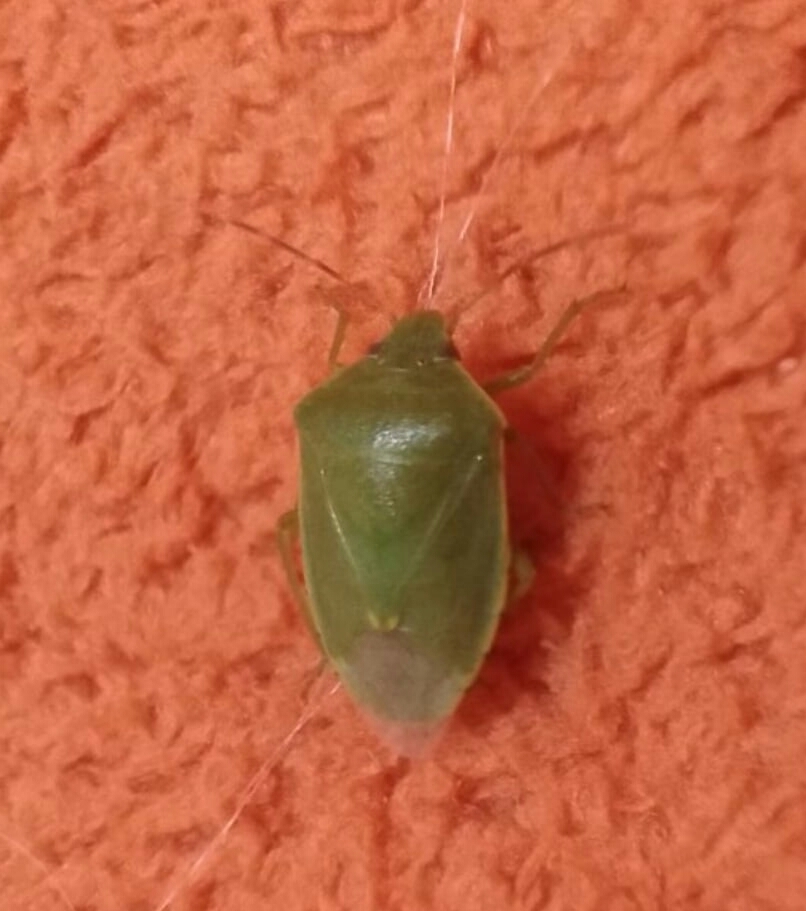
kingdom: Animalia
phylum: Arthropoda
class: Insecta
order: Hemiptera
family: Pentatomidae
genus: Acrosternum
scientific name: Acrosternum heegeri
